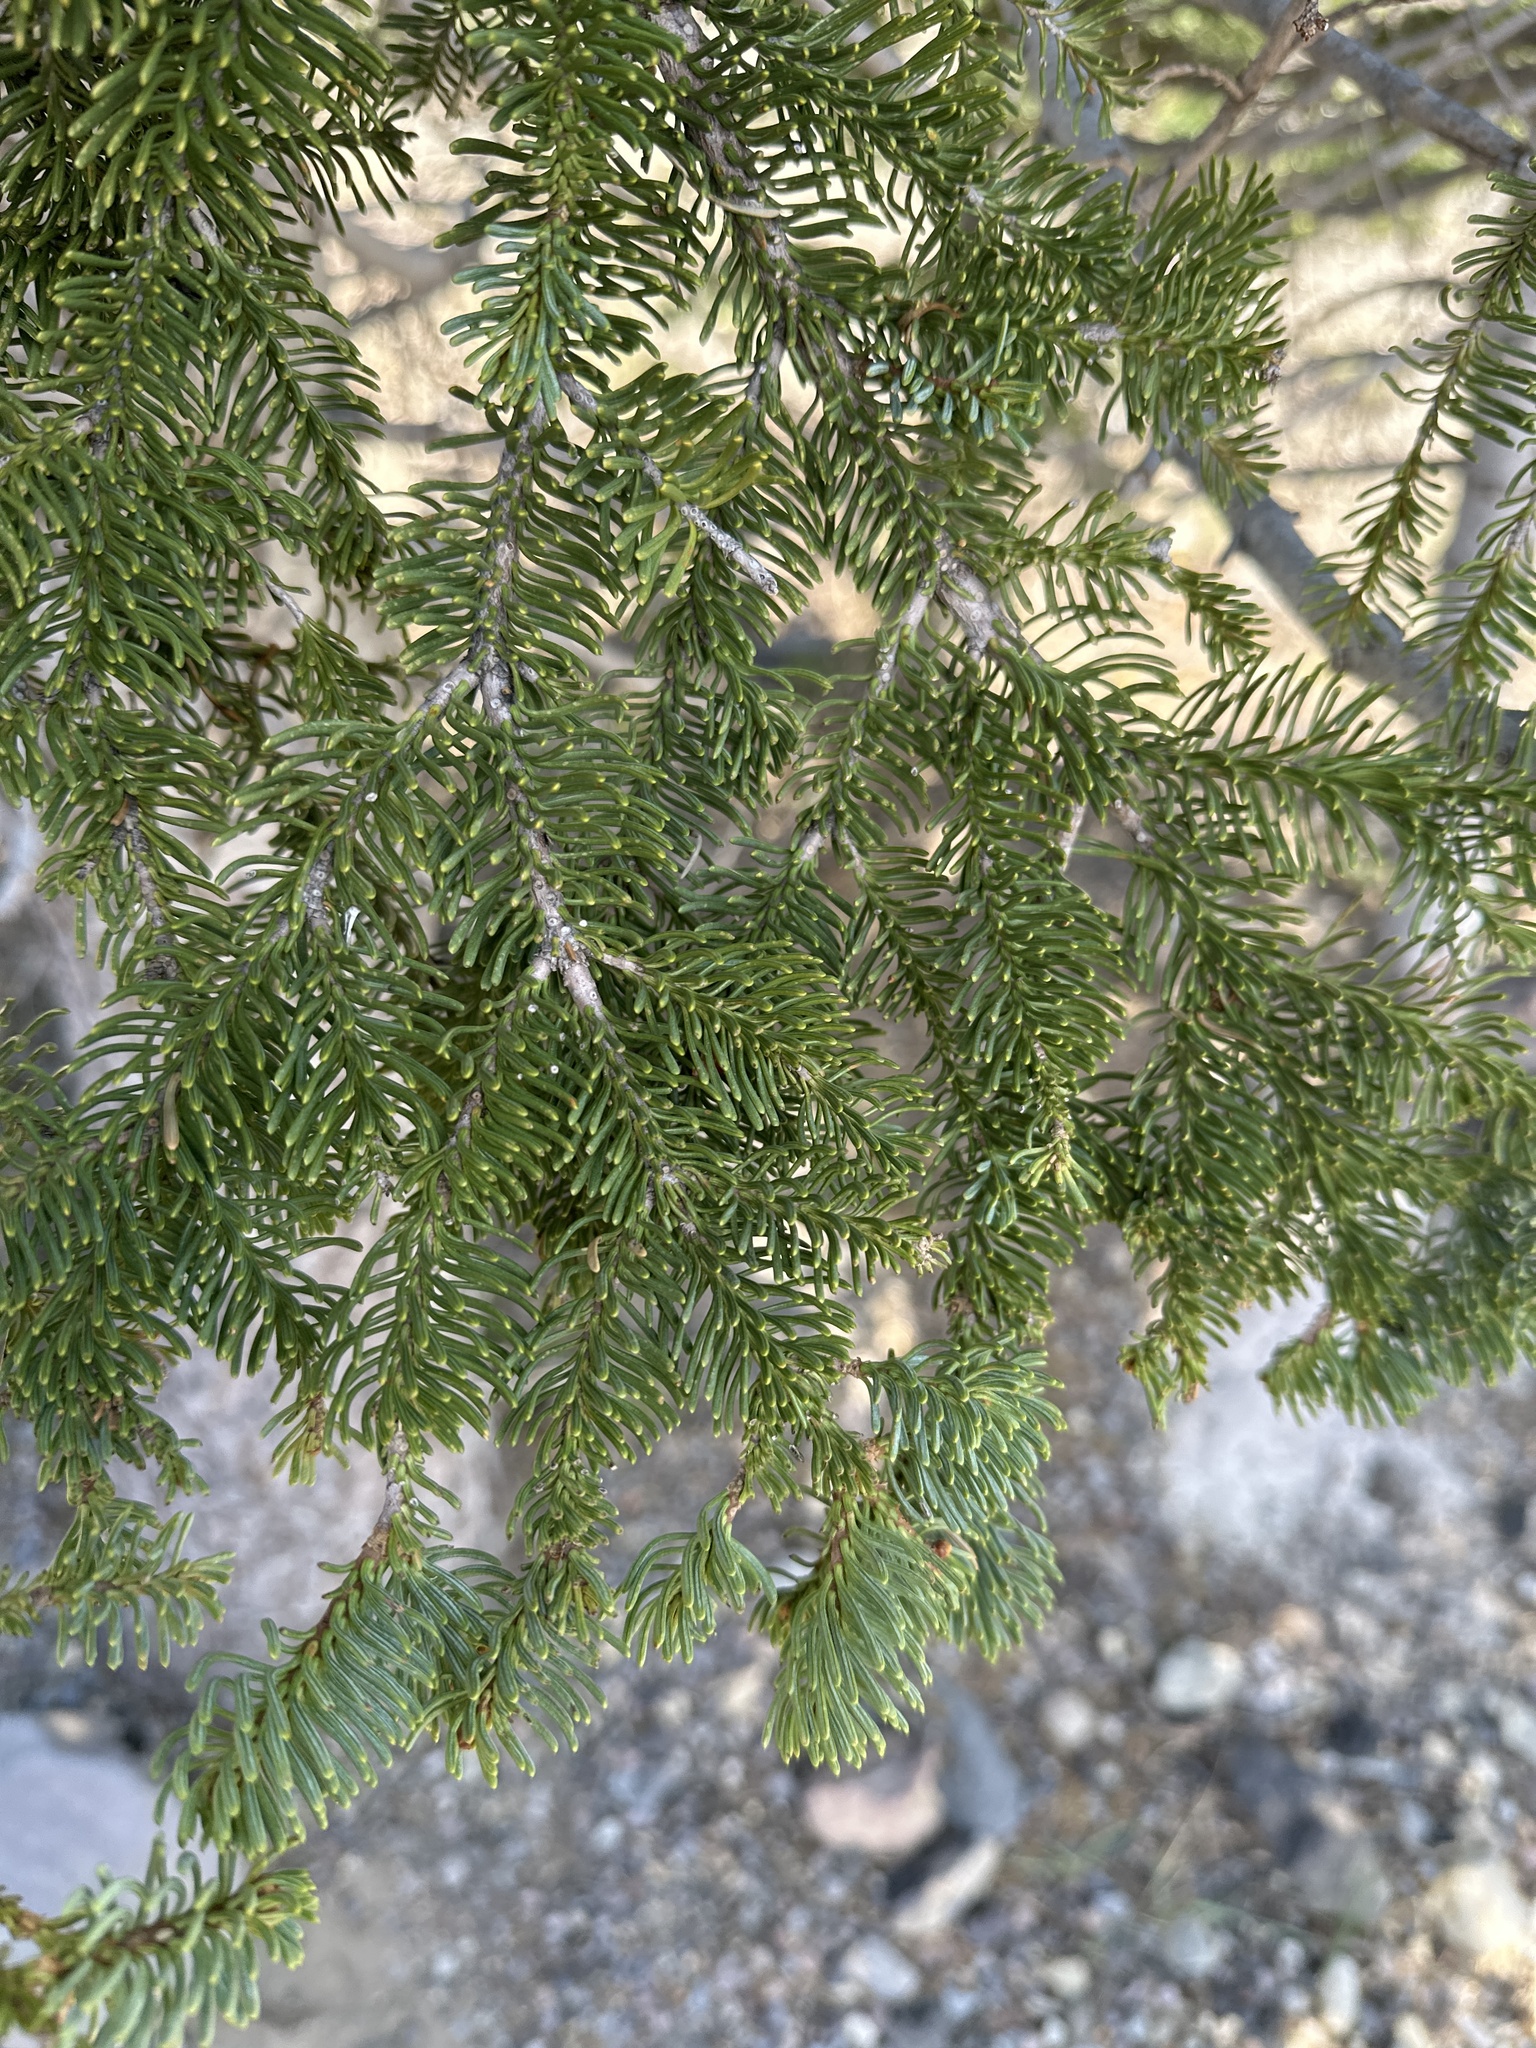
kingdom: Plantae
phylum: Tracheophyta
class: Pinopsida
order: Pinales
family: Pinaceae
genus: Abies
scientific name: Abies magnifica bis
